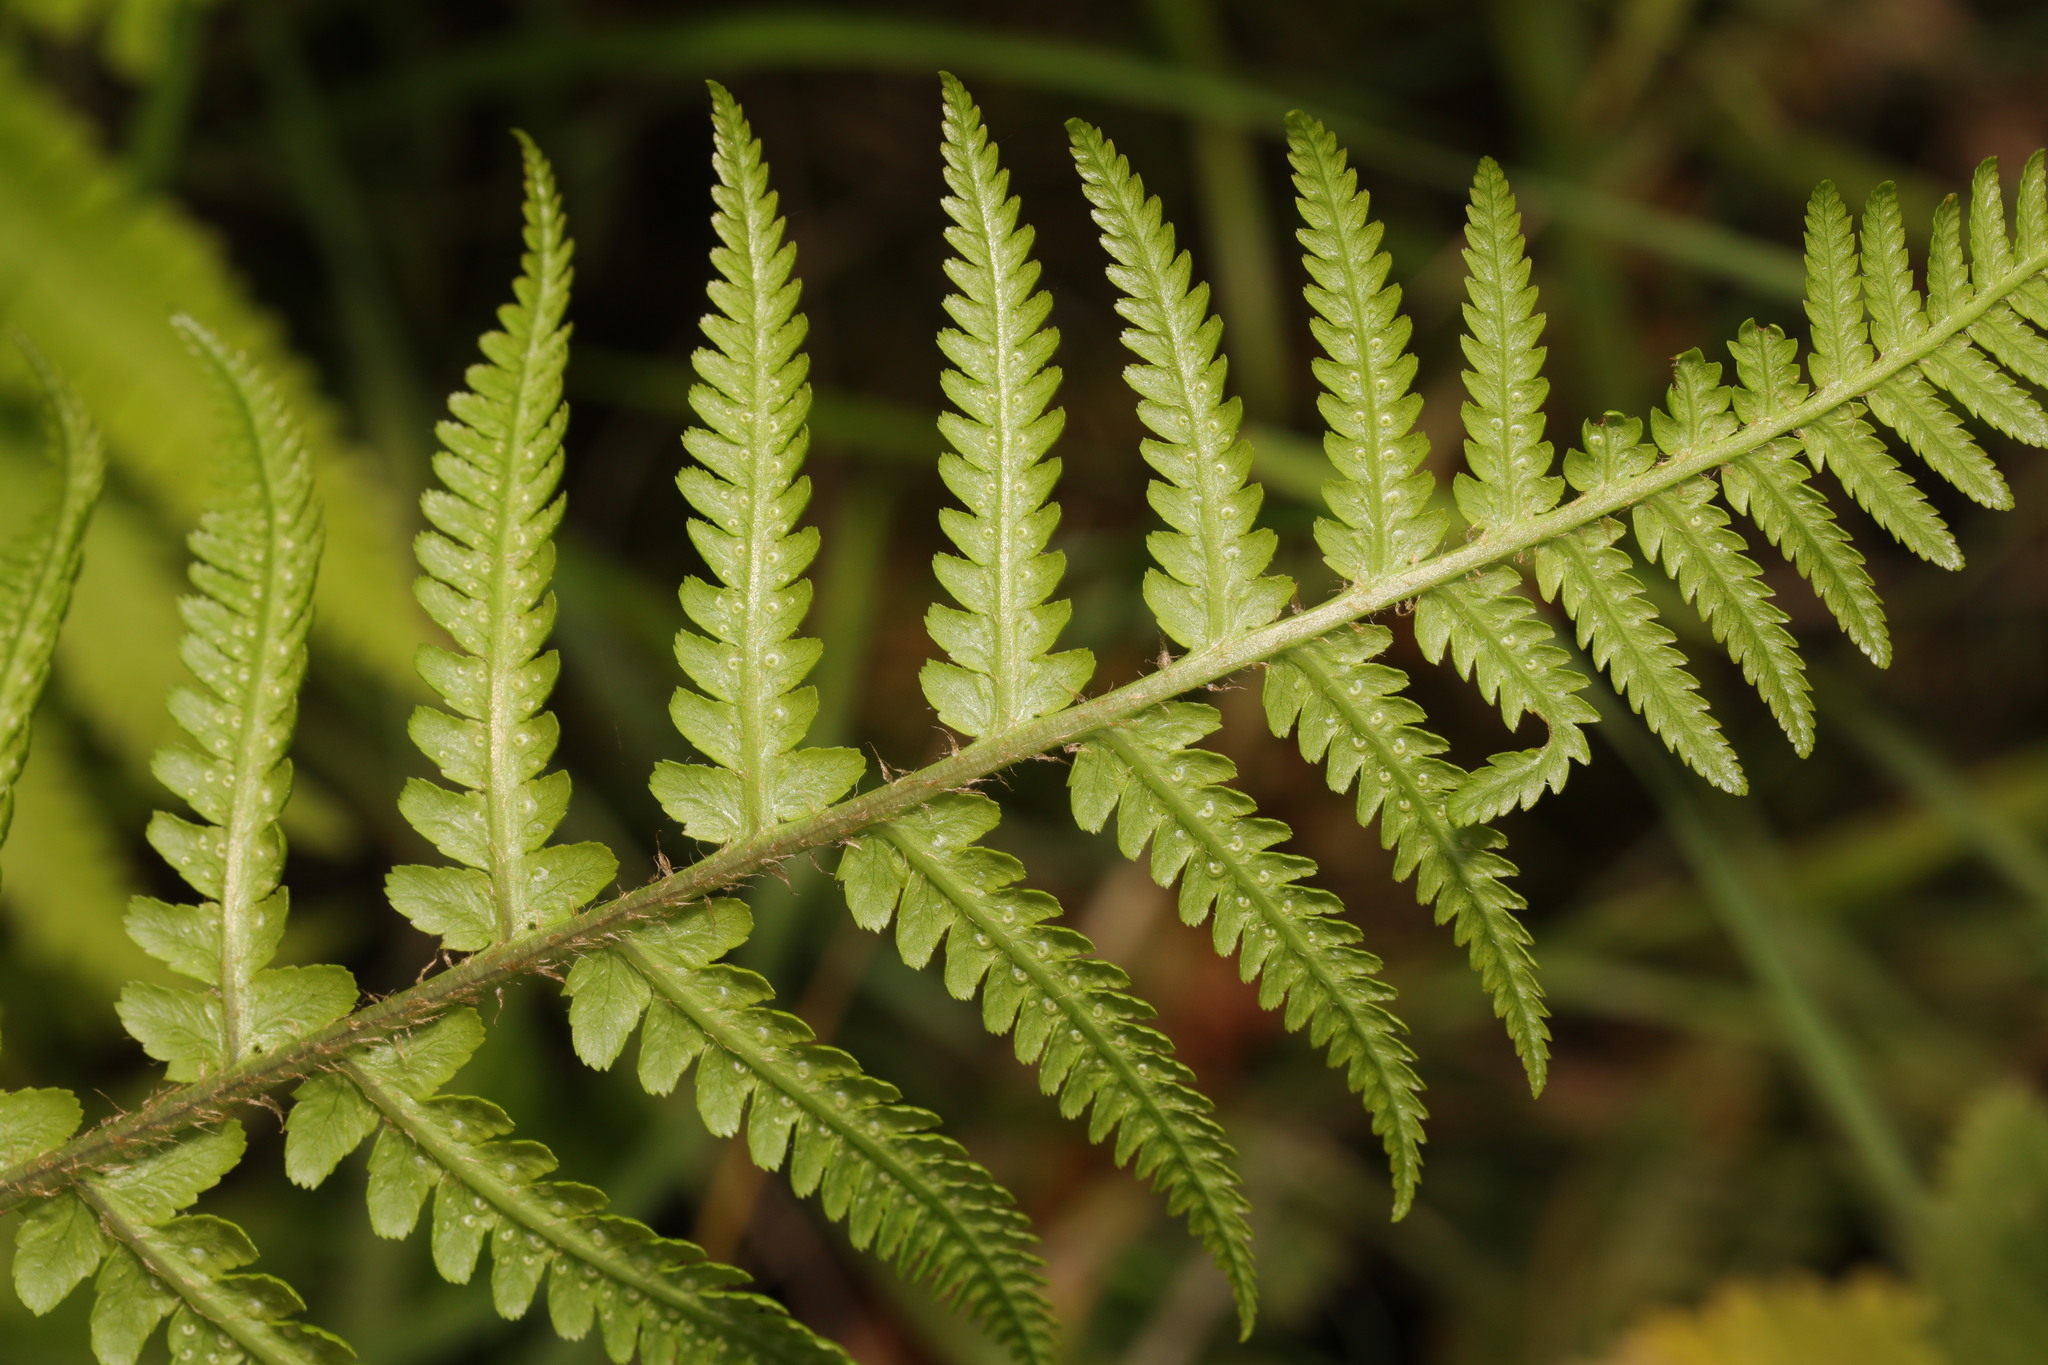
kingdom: Plantae
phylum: Tracheophyta
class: Polypodiopsida
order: Polypodiales
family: Dryopteridaceae
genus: Dryopteris
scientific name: Dryopteris filix-mas
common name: Male fern
